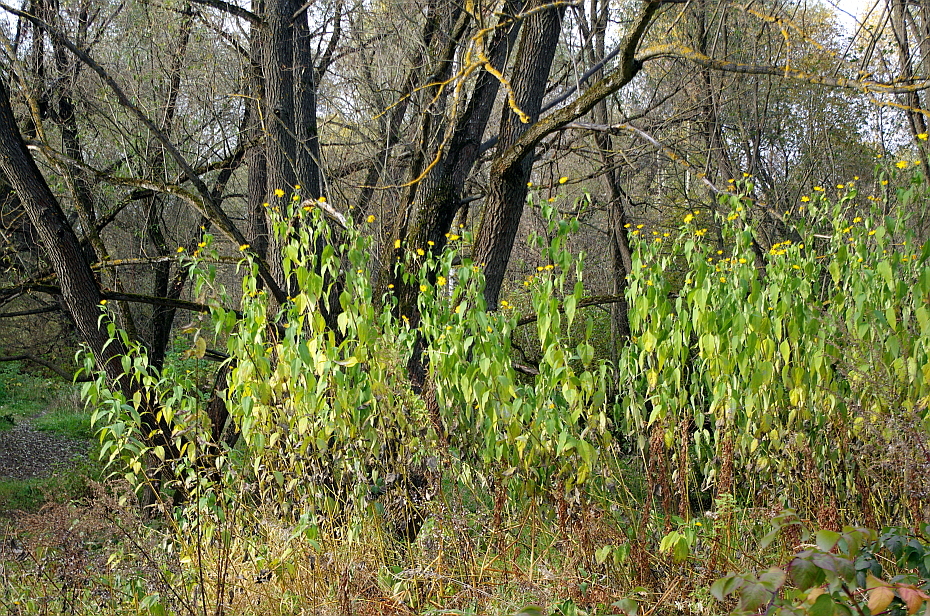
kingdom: Fungi
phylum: Ascomycota
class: Lecanoromycetes
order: Teloschistales
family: Teloschistaceae
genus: Xanthoria
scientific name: Xanthoria parietina
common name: Common orange lichen
